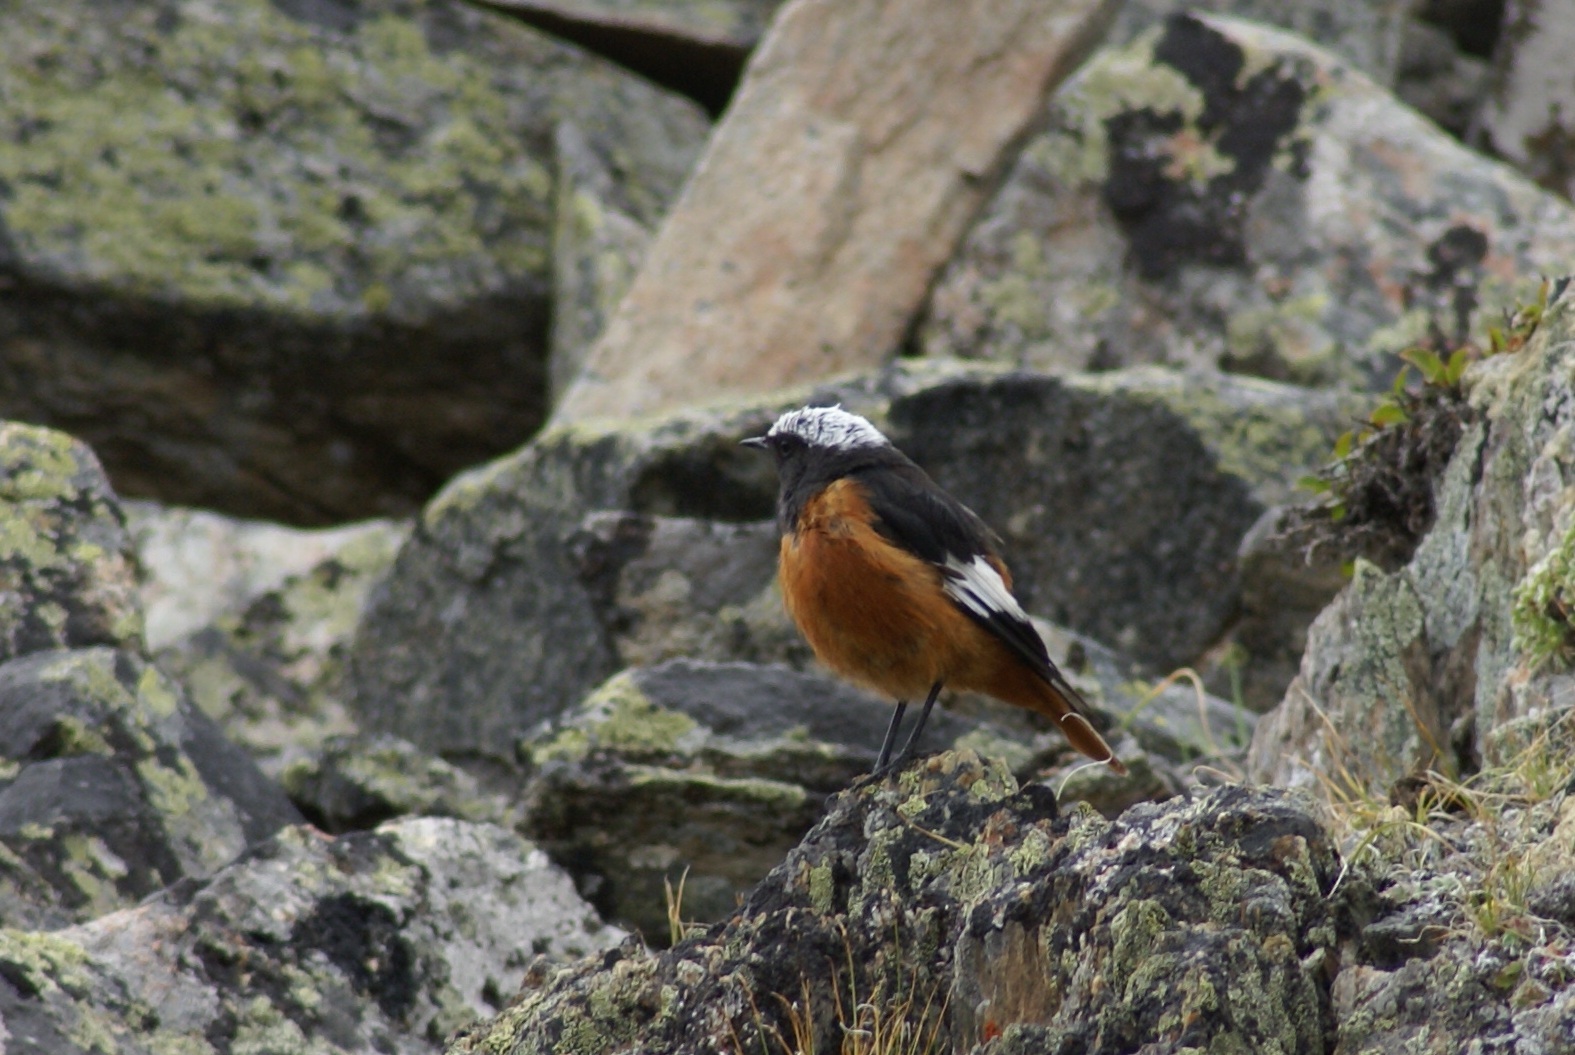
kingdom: Animalia
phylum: Chordata
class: Aves
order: Passeriformes
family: Muscicapidae
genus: Phoenicurus
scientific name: Phoenicurus erythrogastrus
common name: Güldenstädt's redstart
